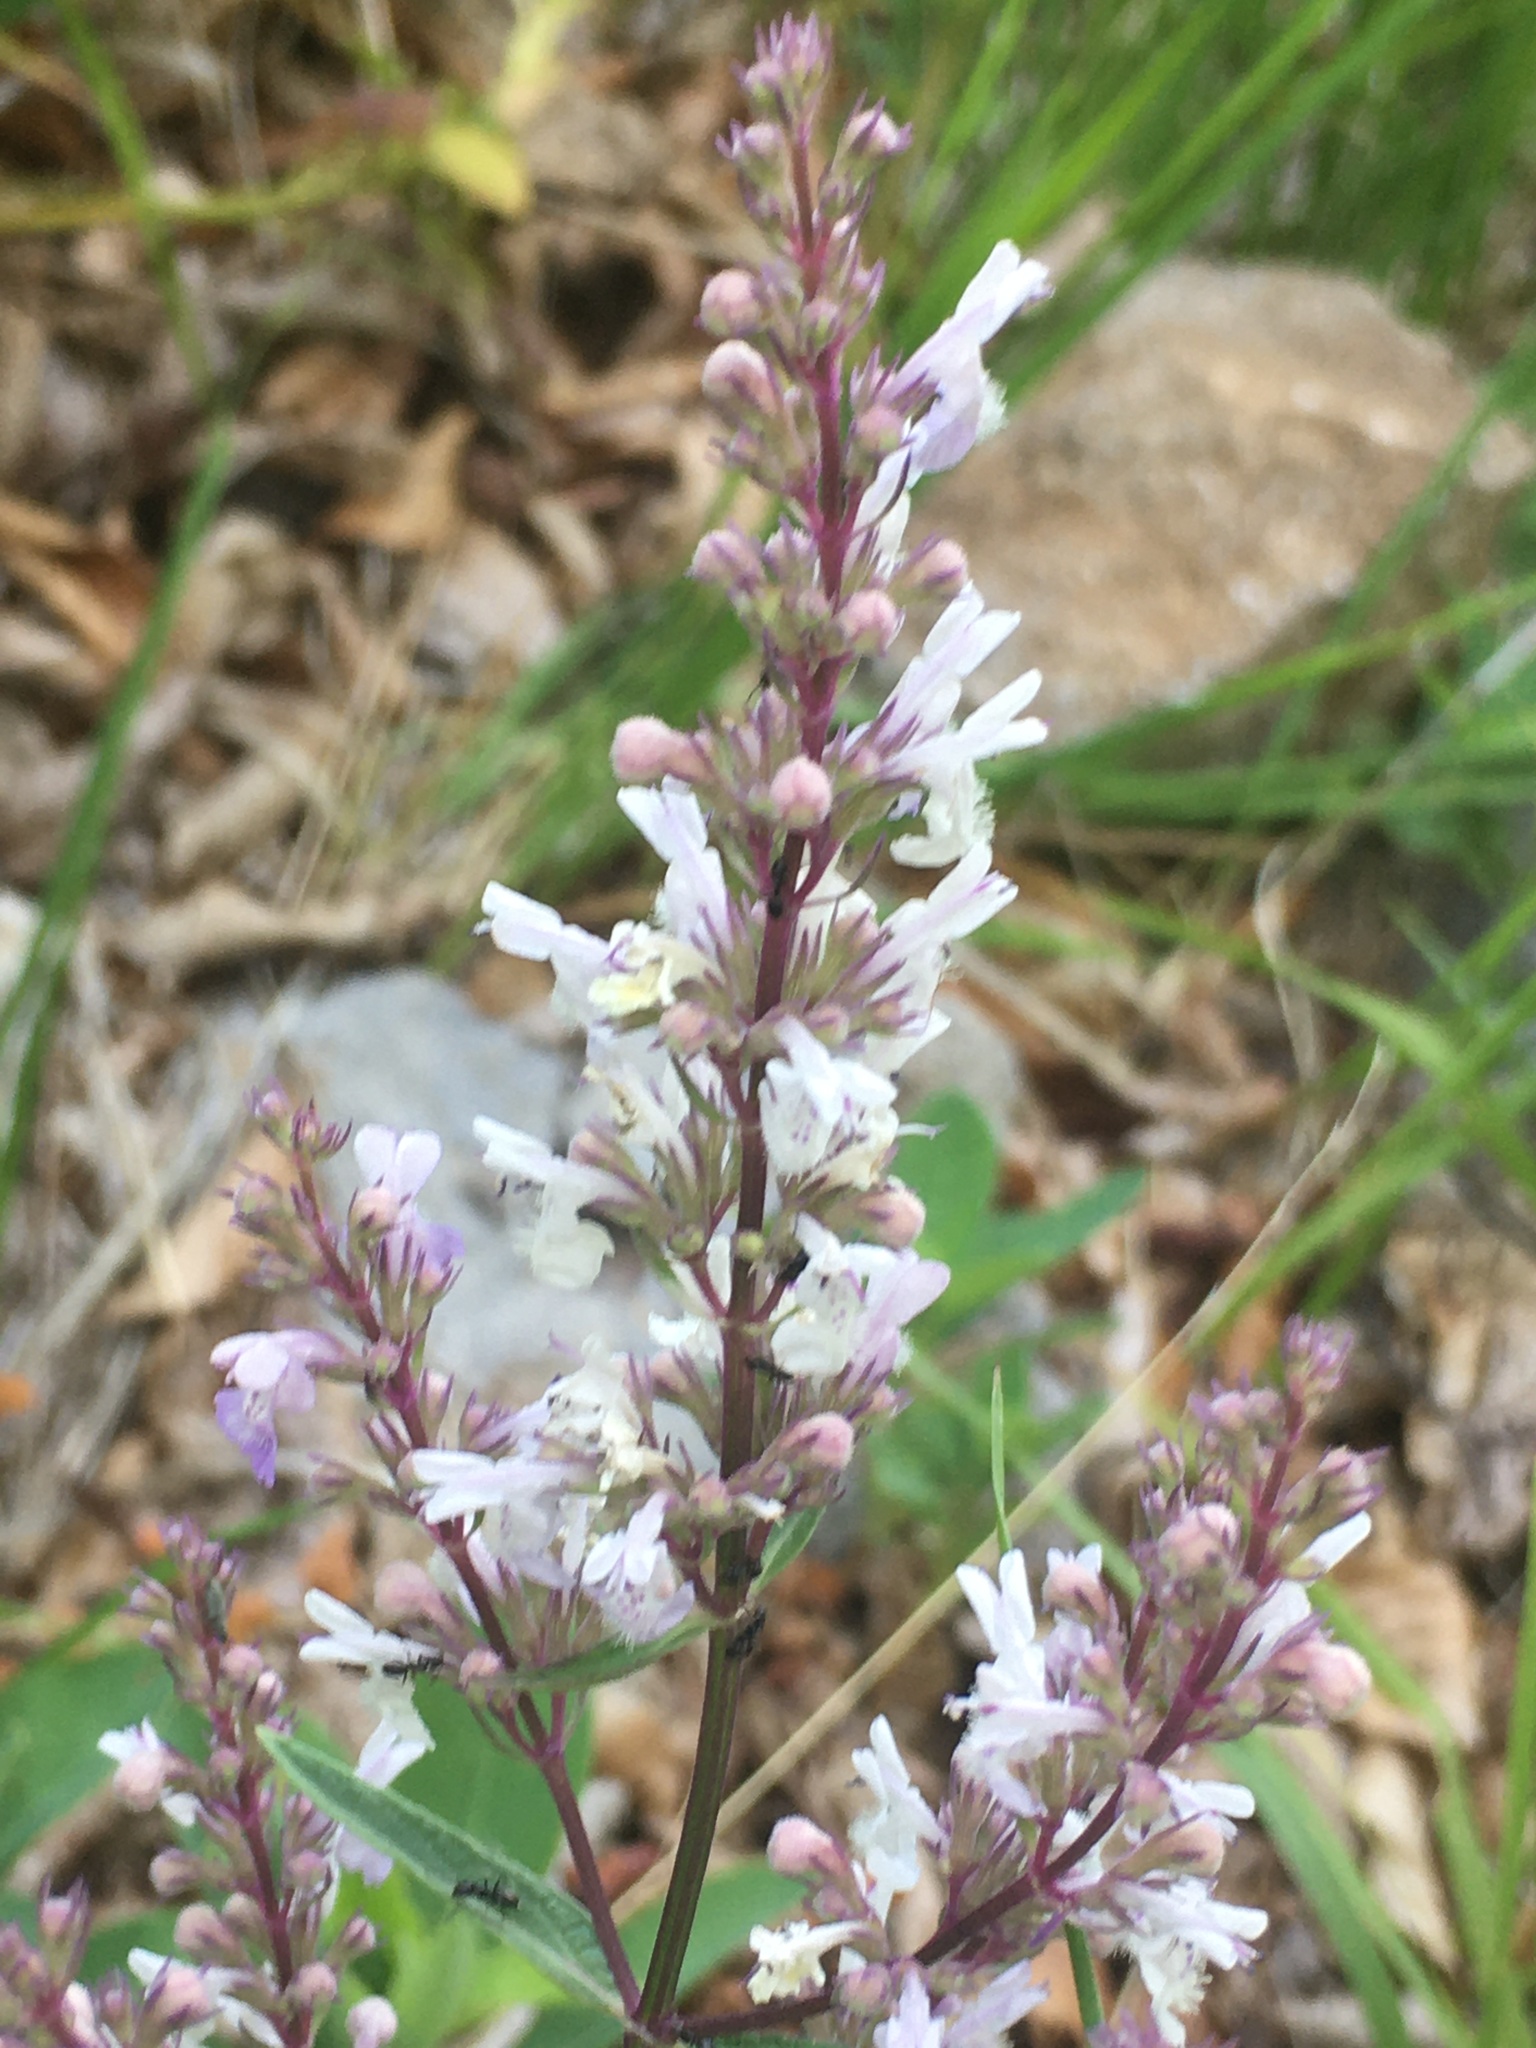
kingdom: Plantae
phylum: Tracheophyta
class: Magnoliopsida
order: Lamiales
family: Lamiaceae
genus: Nepeta
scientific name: Nepeta nuda
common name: Hairless catmint
